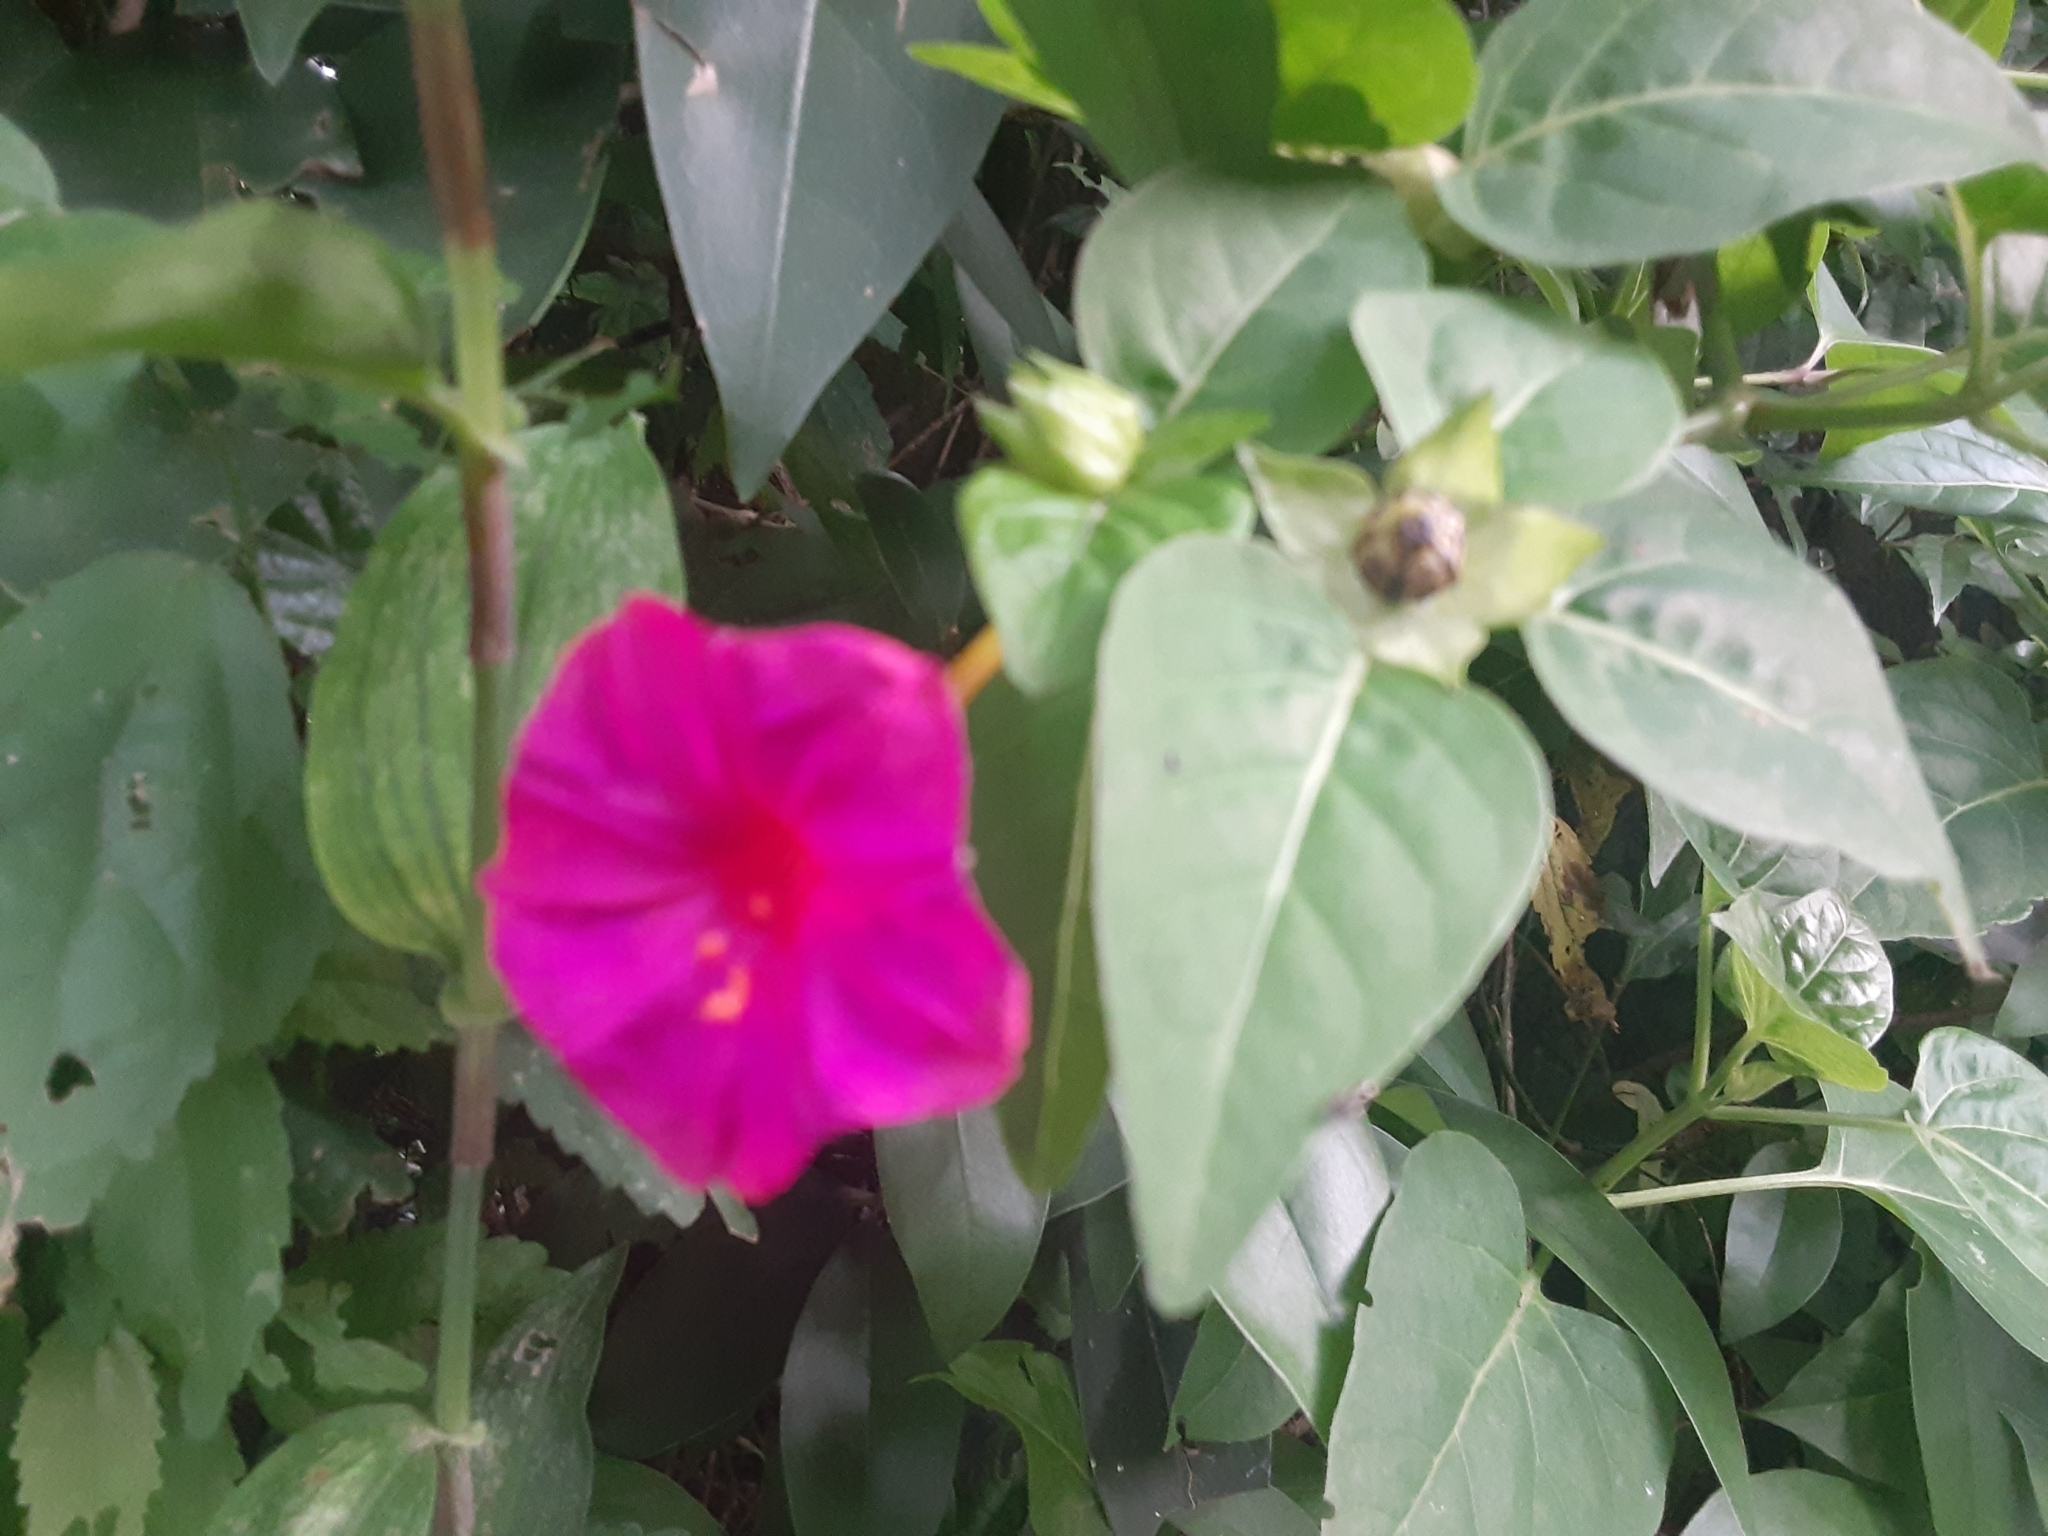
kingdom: Plantae
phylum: Tracheophyta
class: Magnoliopsida
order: Caryophyllales
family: Nyctaginaceae
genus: Mirabilis
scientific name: Mirabilis jalapa
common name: Marvel-of-peru
